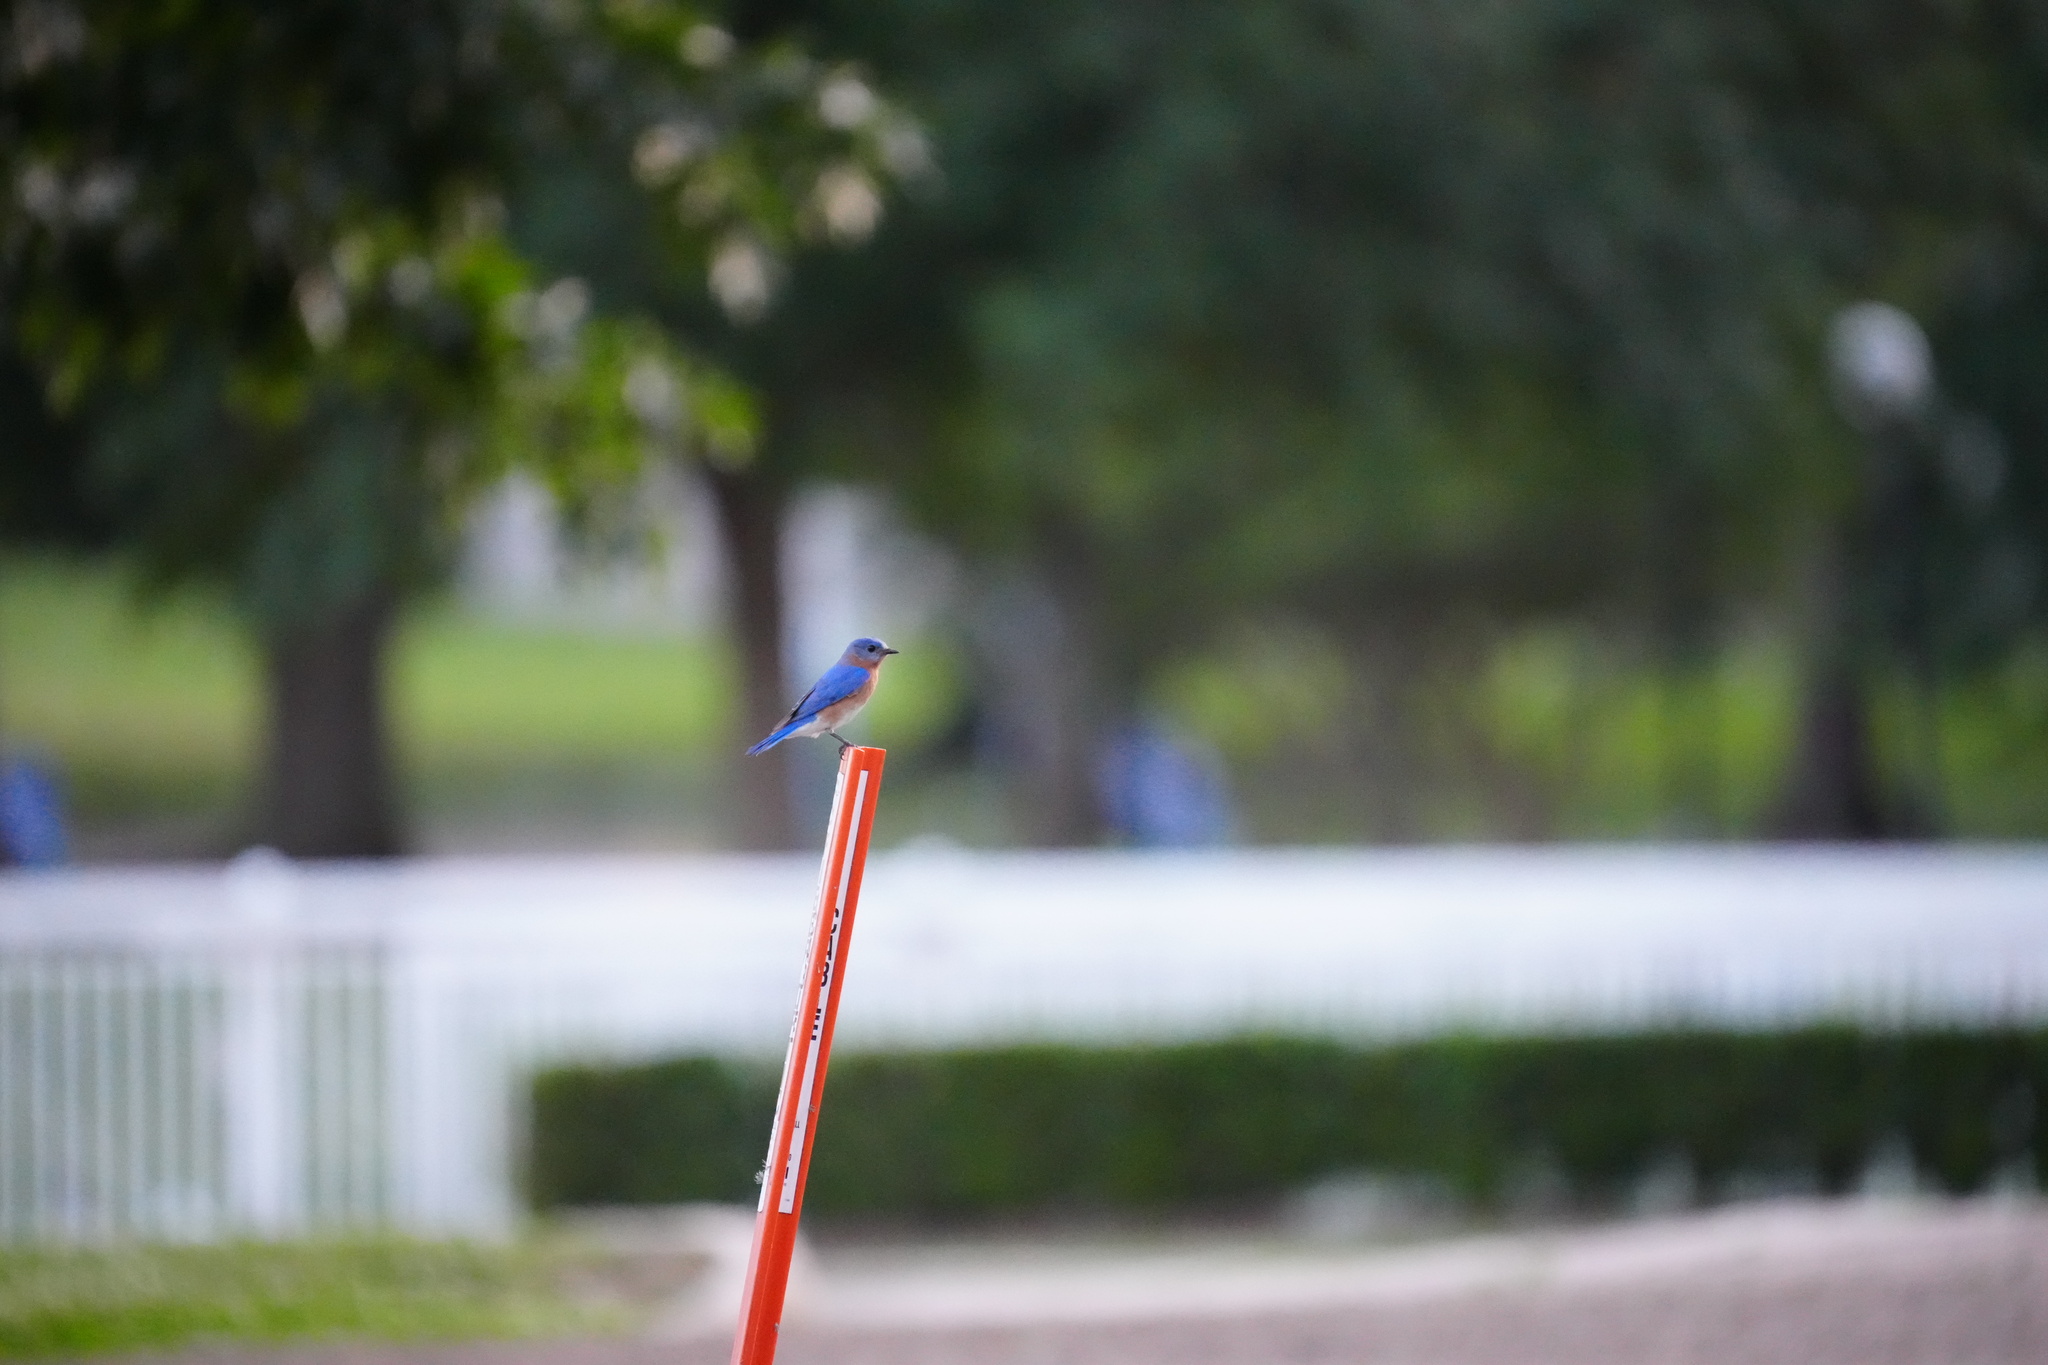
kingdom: Animalia
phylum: Chordata
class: Aves
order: Passeriformes
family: Turdidae
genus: Sialia
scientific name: Sialia sialis
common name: Eastern bluebird
